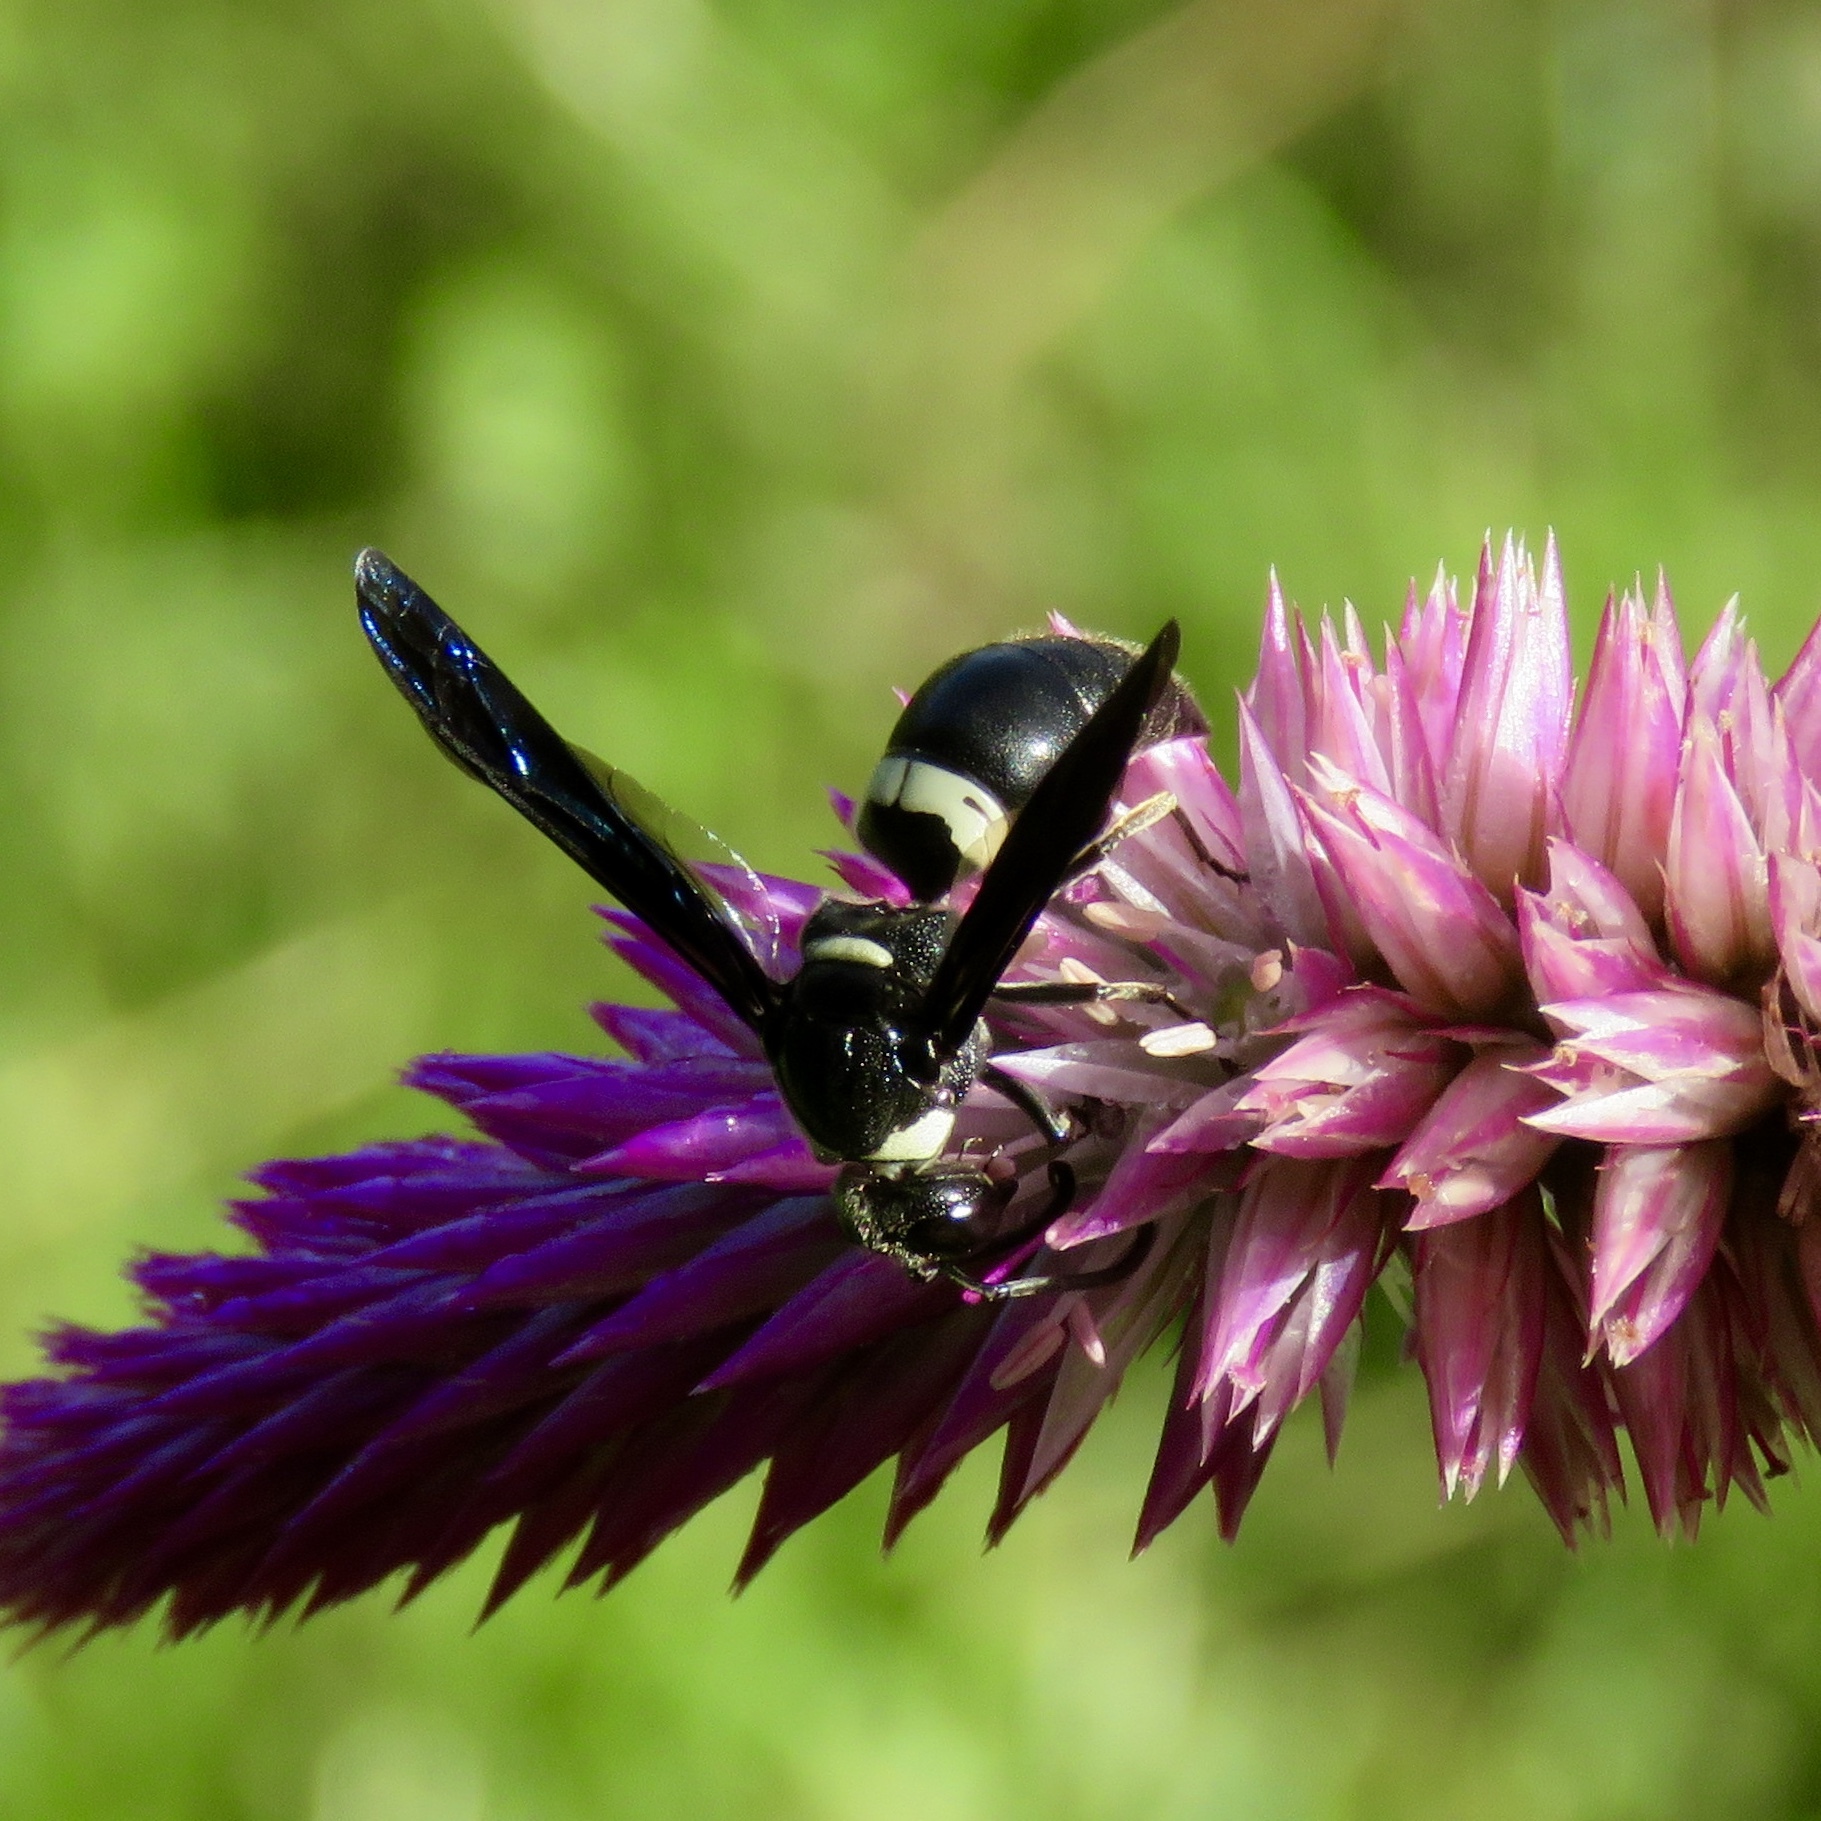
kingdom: Animalia
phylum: Arthropoda
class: Insecta
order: Hymenoptera
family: Eumenidae
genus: Monobia
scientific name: Monobia quadridens
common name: Four-toothed mason wasp
